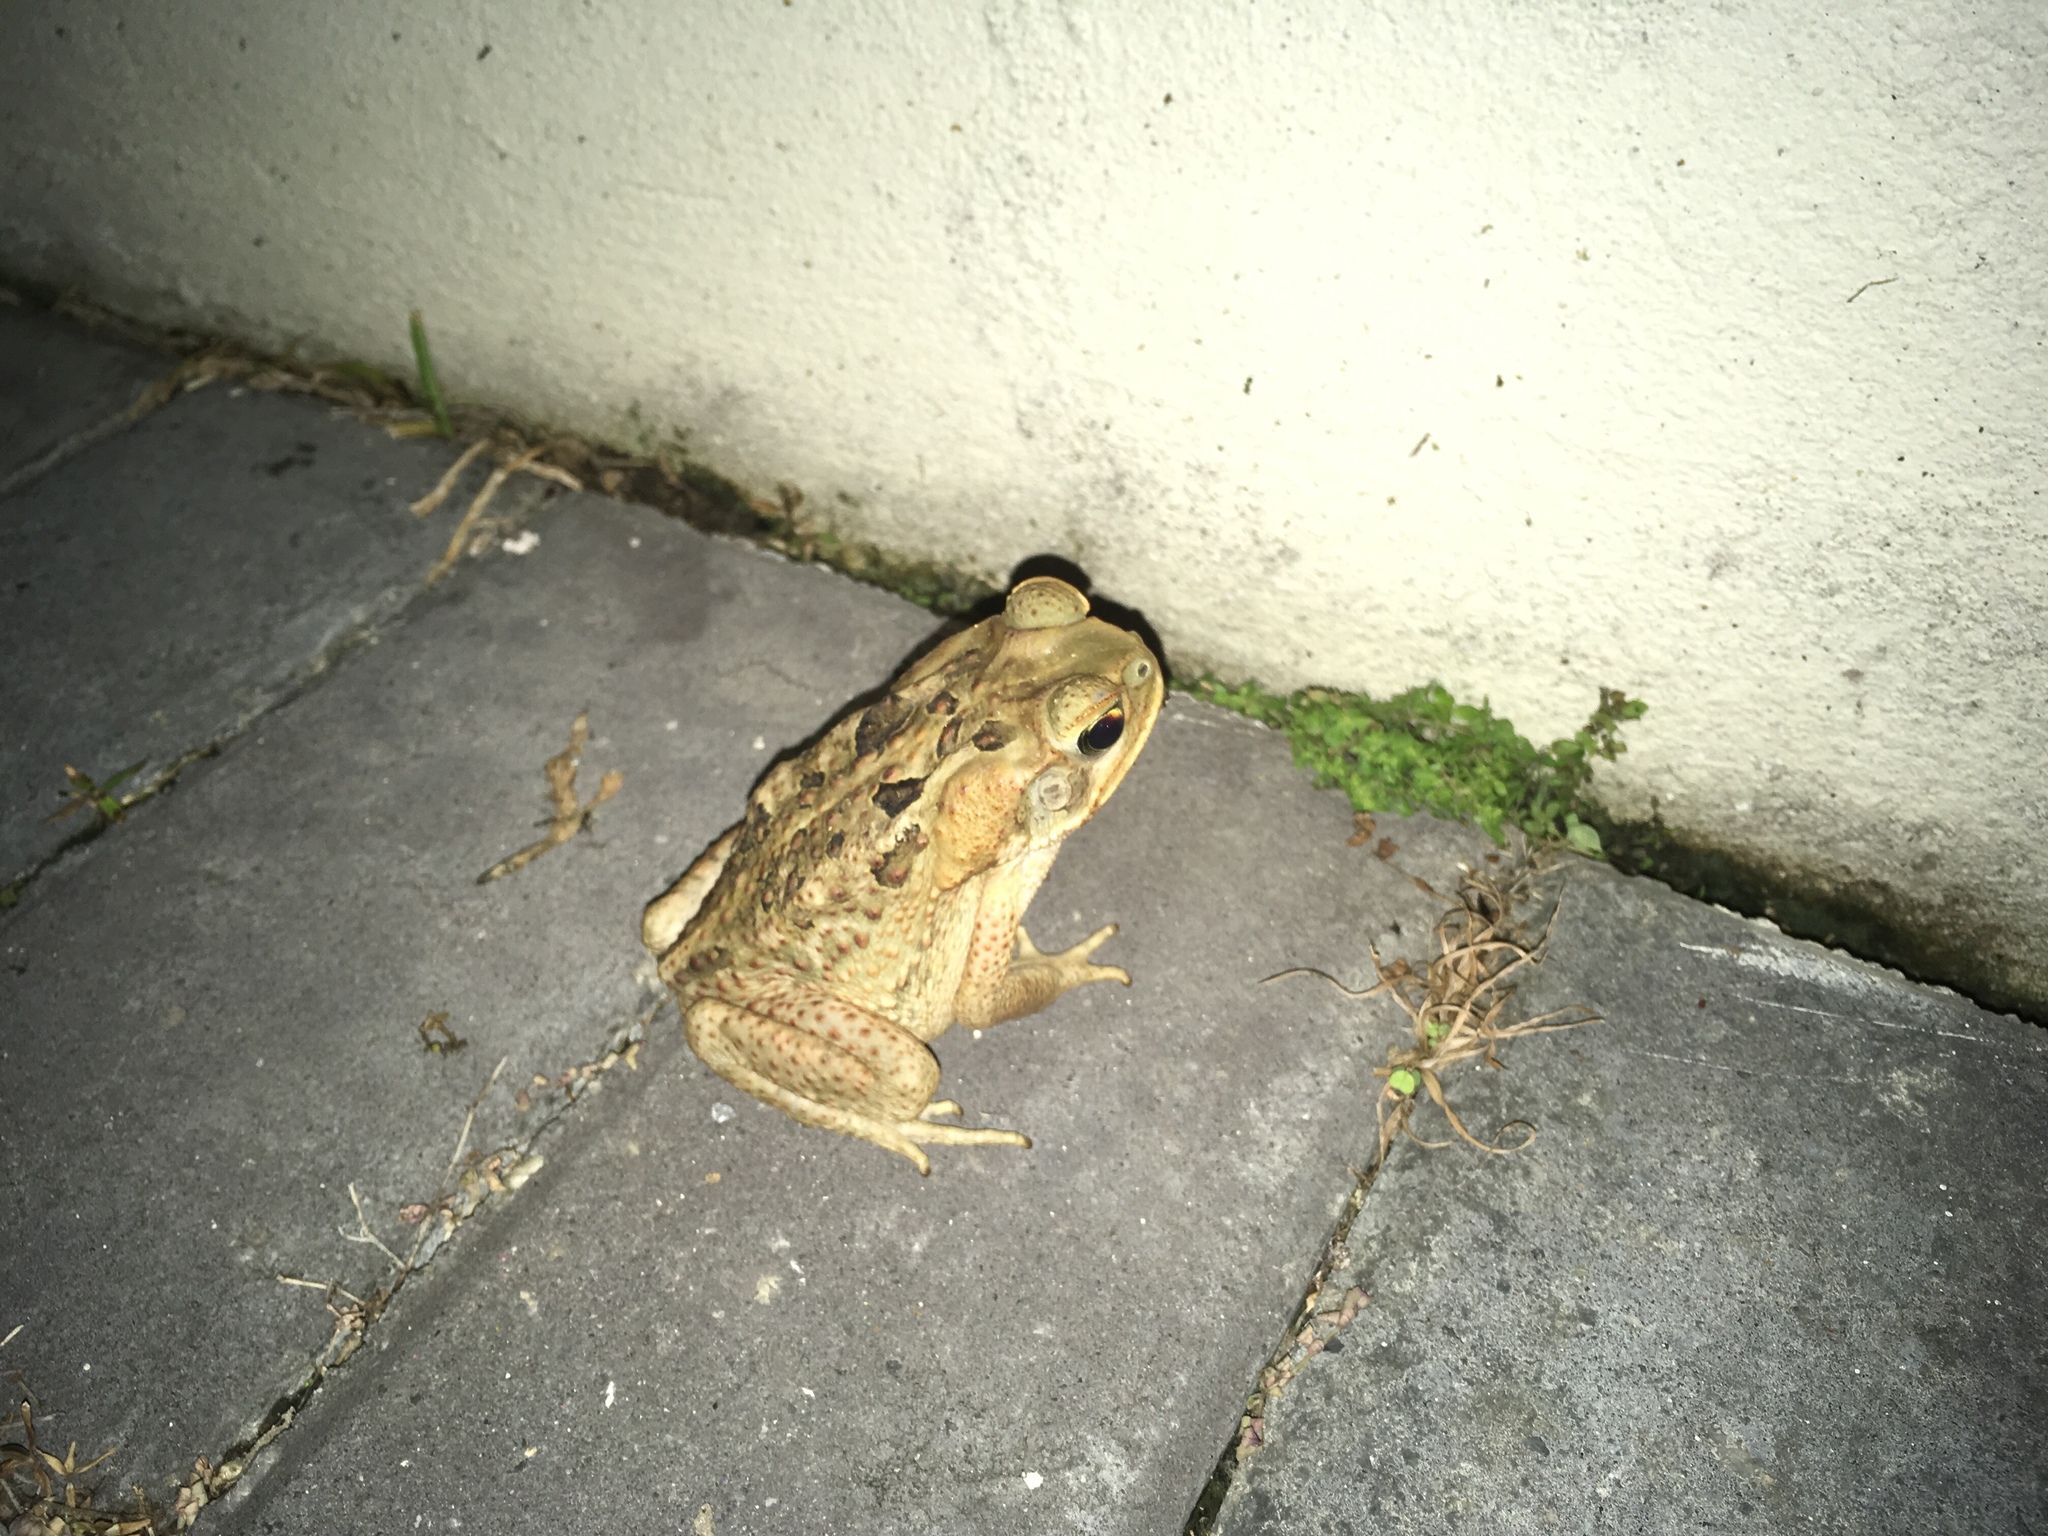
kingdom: Animalia
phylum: Chordata
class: Amphibia
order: Anura
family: Bufonidae
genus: Rhinella
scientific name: Rhinella marina
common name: Cane toad
